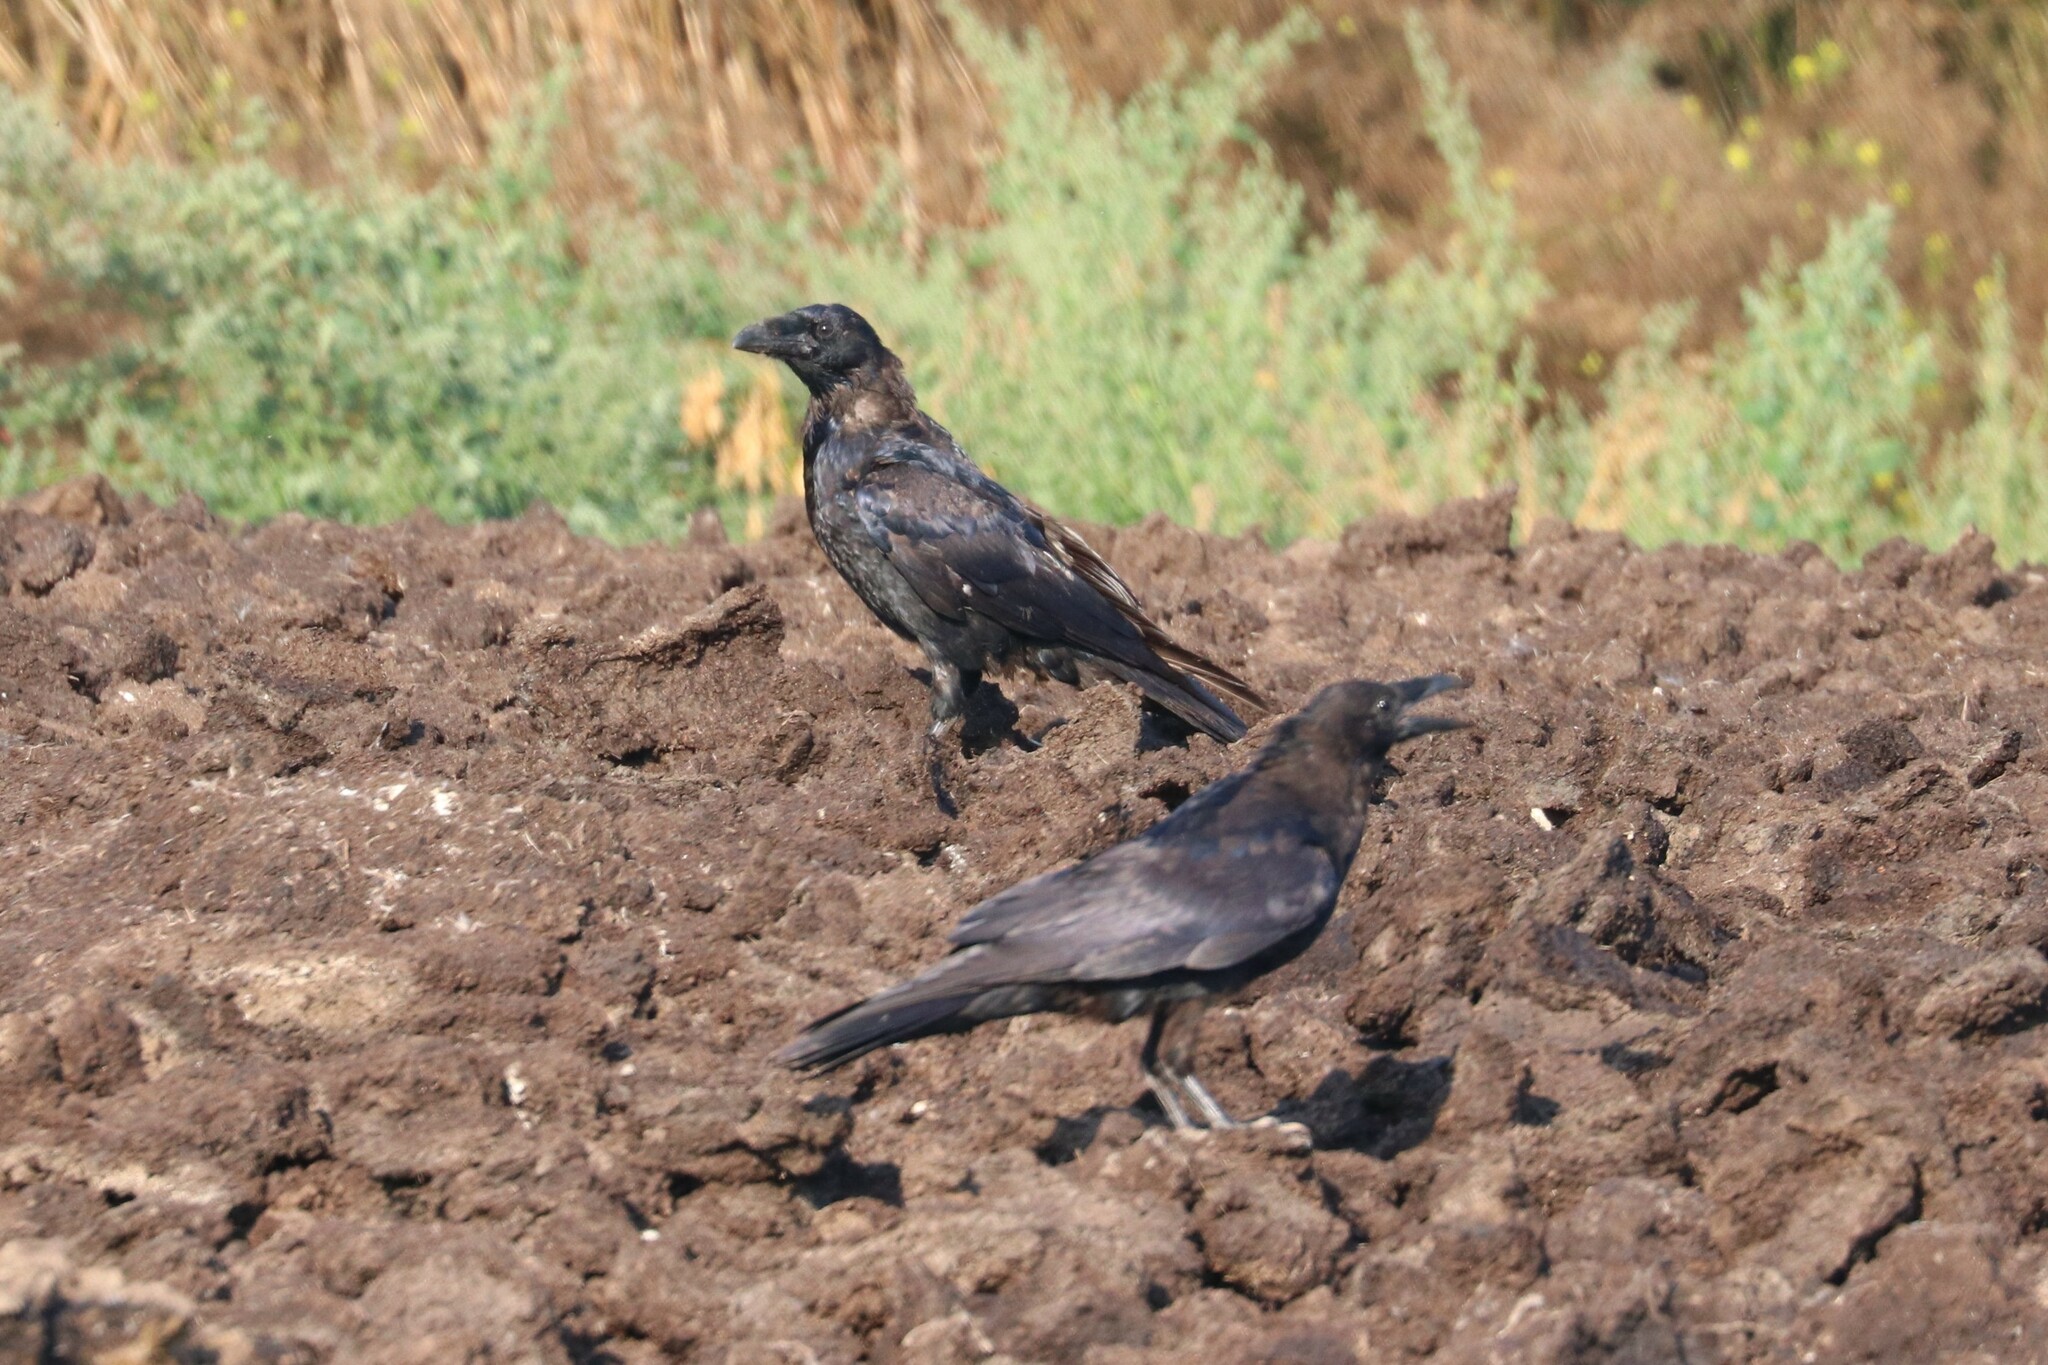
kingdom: Animalia
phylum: Chordata
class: Aves
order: Passeriformes
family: Corvidae
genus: Corvus
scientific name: Corvus corax
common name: Common raven
